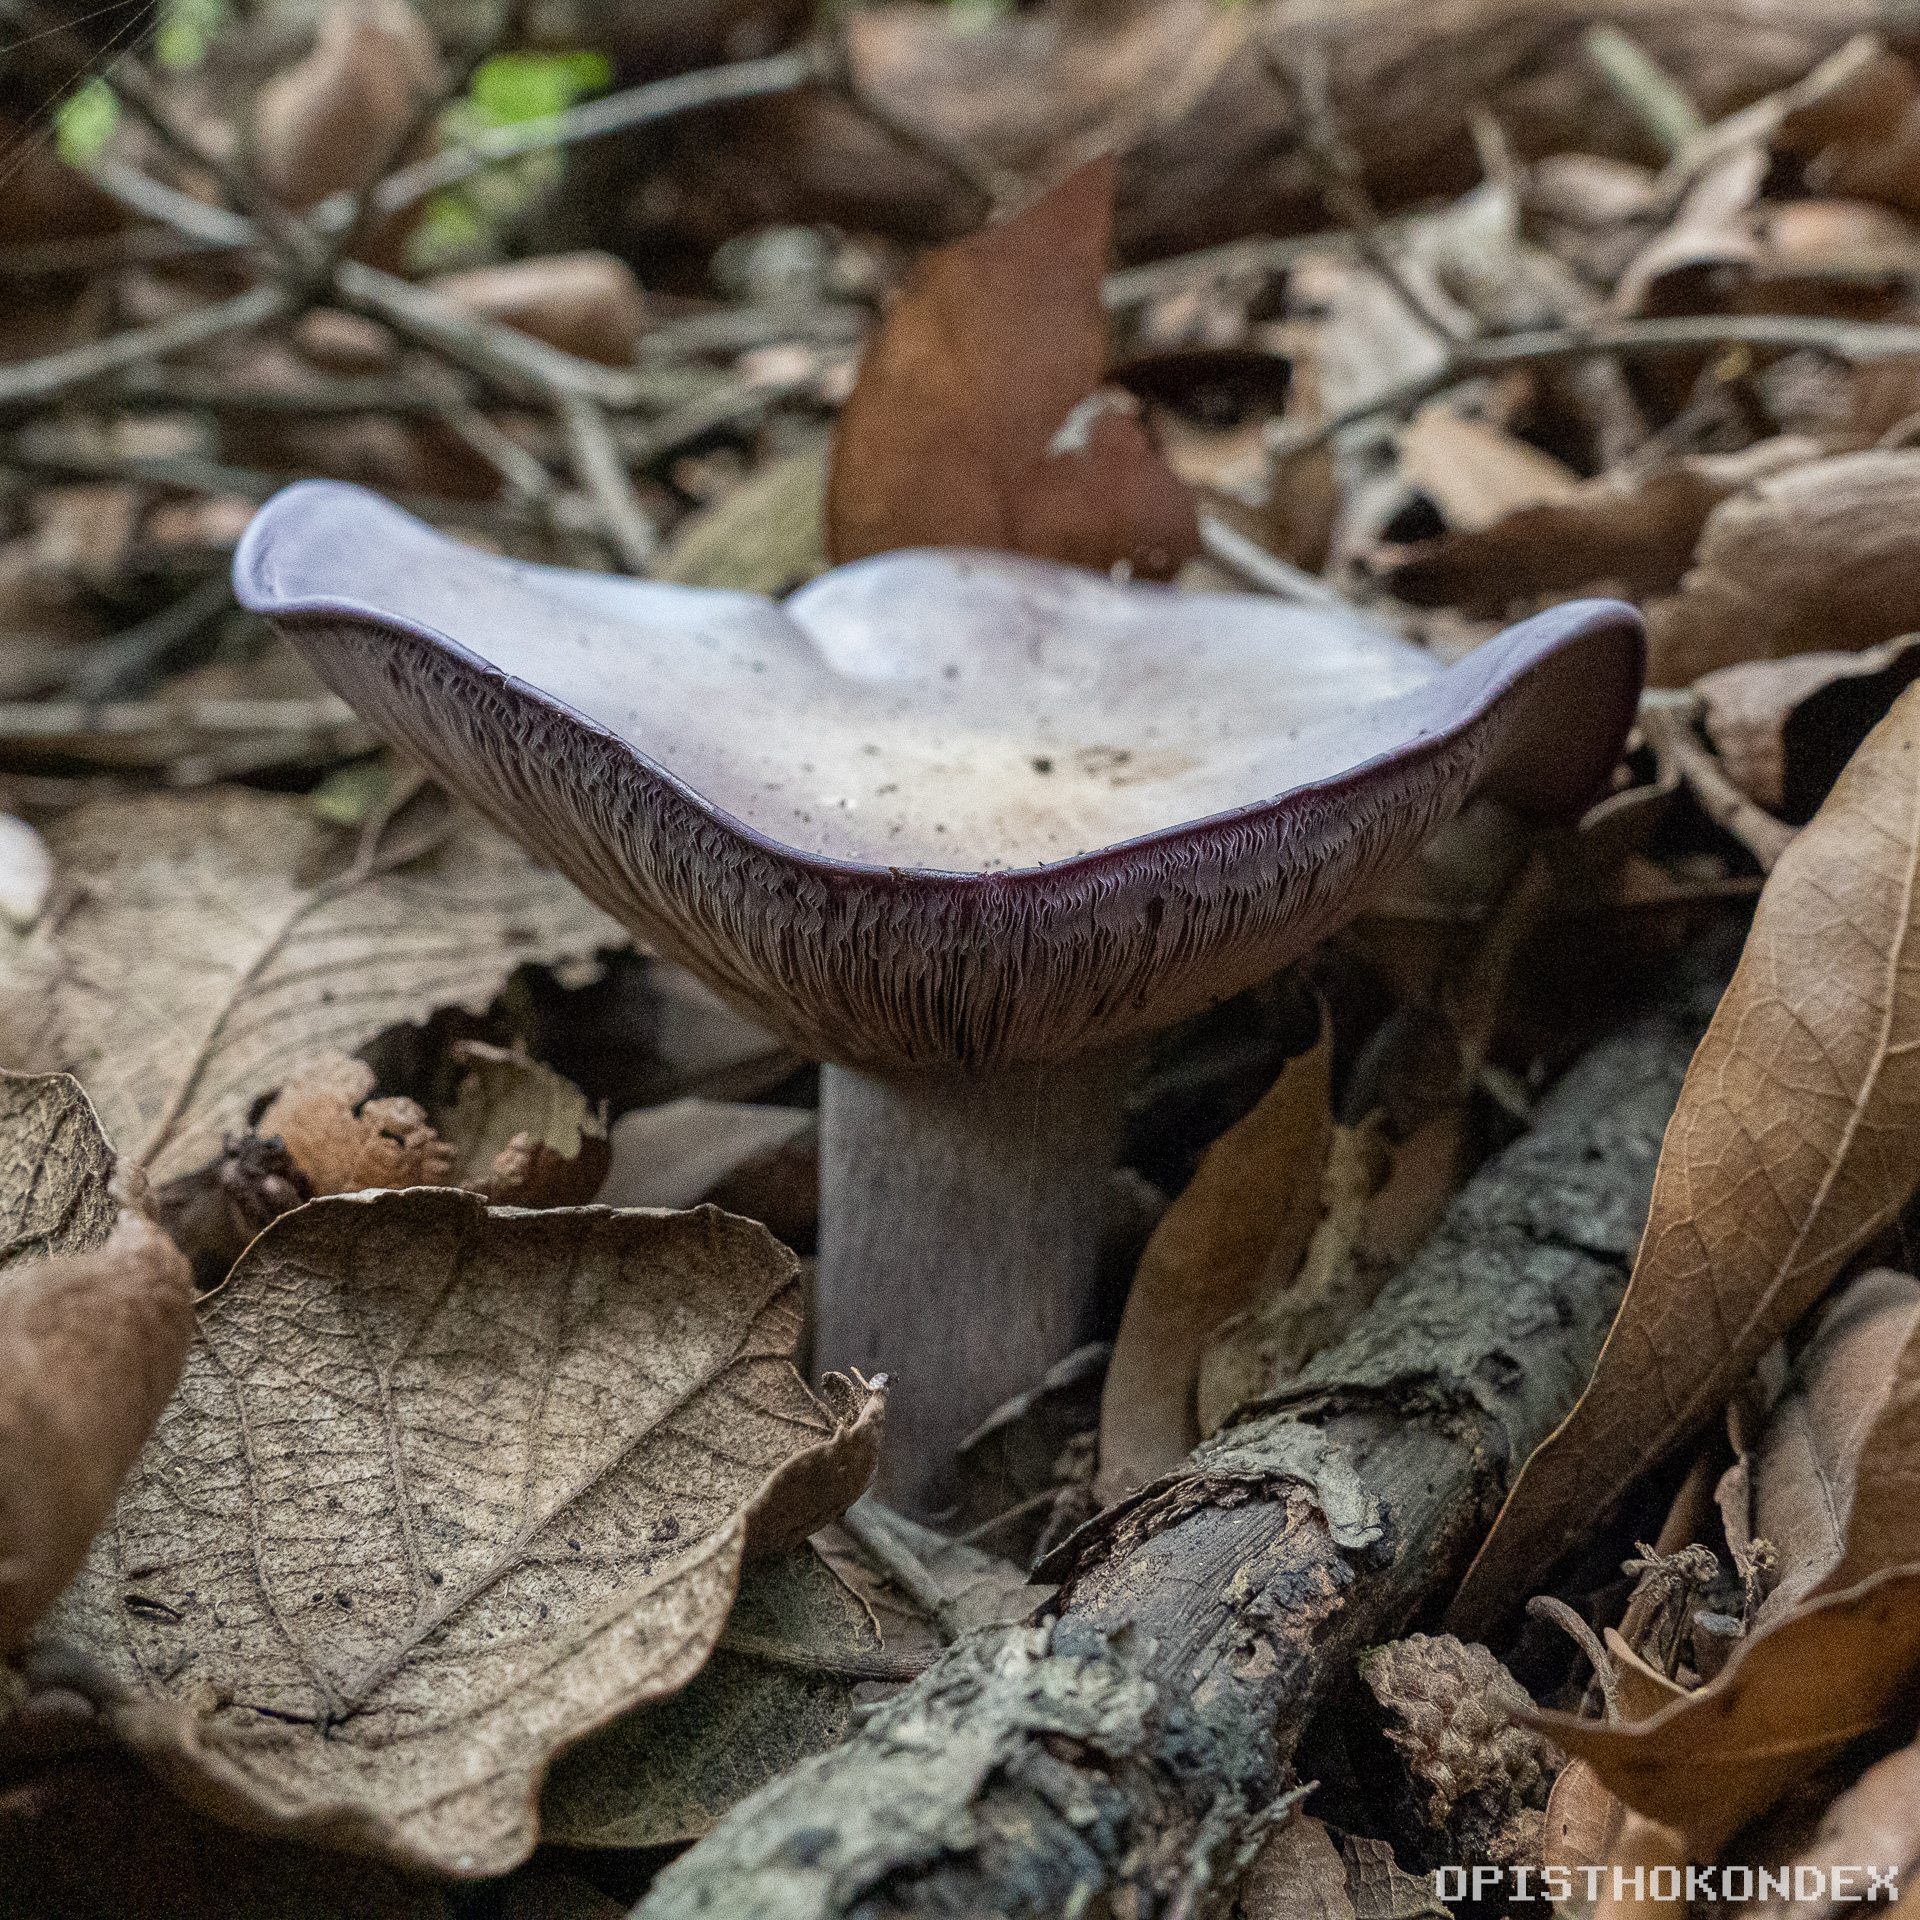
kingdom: Fungi
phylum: Basidiomycota
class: Agaricomycetes
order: Agaricales
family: Tricholomataceae
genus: Collybia
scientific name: Collybia
